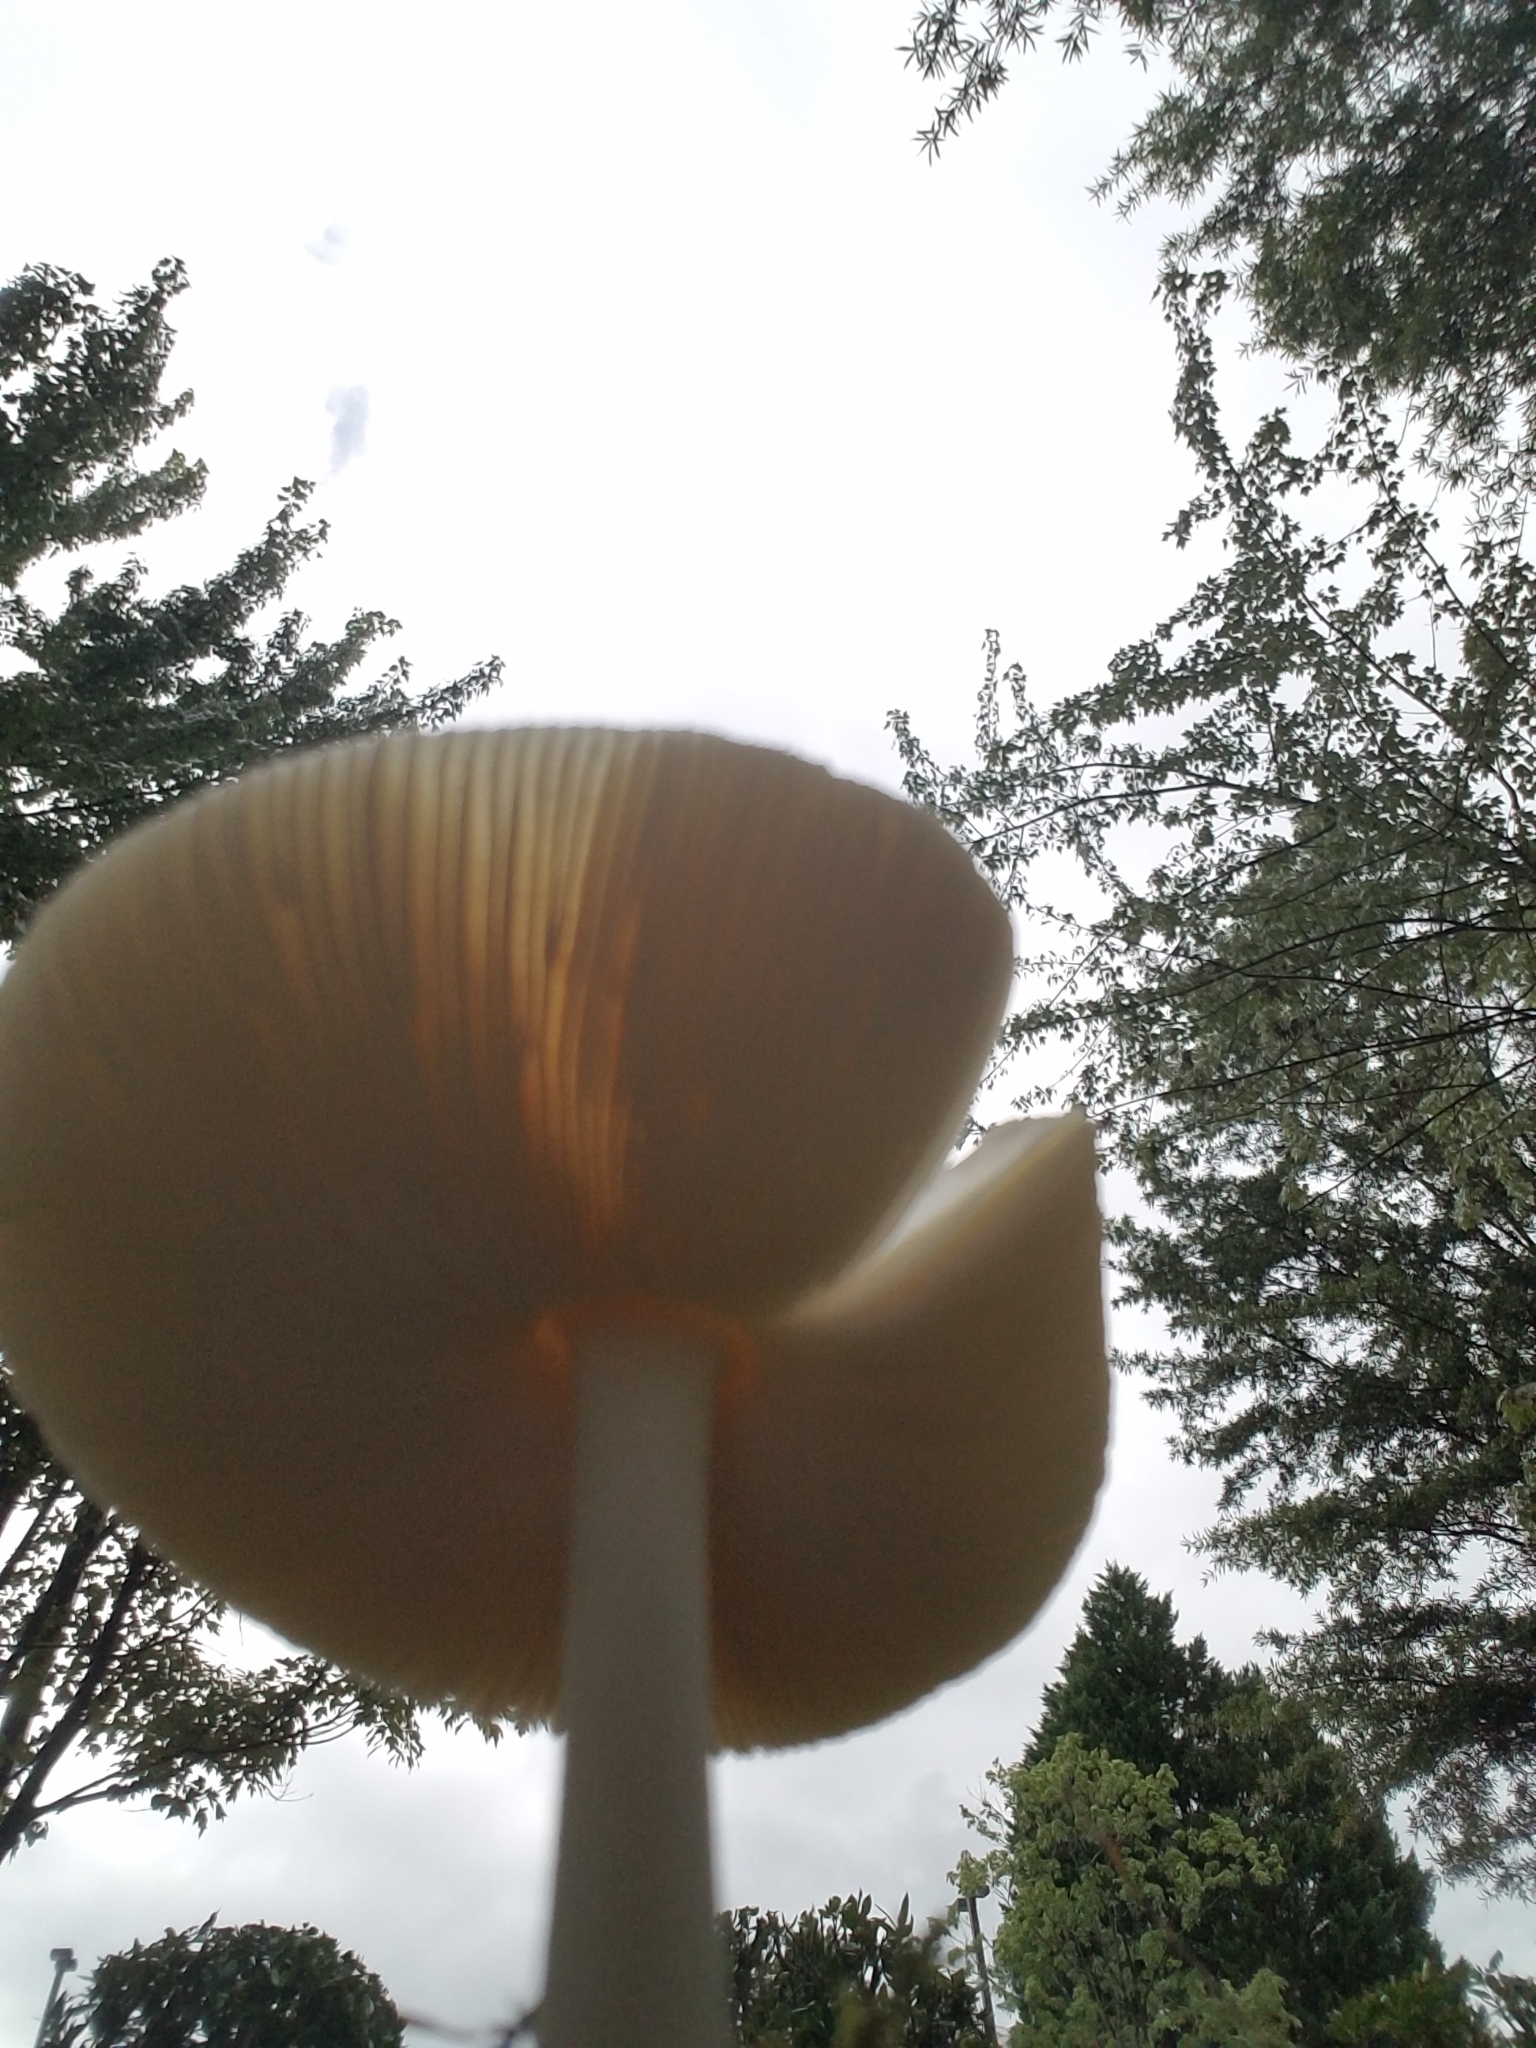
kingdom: Fungi
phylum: Basidiomycota
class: Agaricomycetes
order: Agaricales
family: Amanitaceae
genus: Amanita
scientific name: Amanita bisporigera
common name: Eastern north american destroying angel
